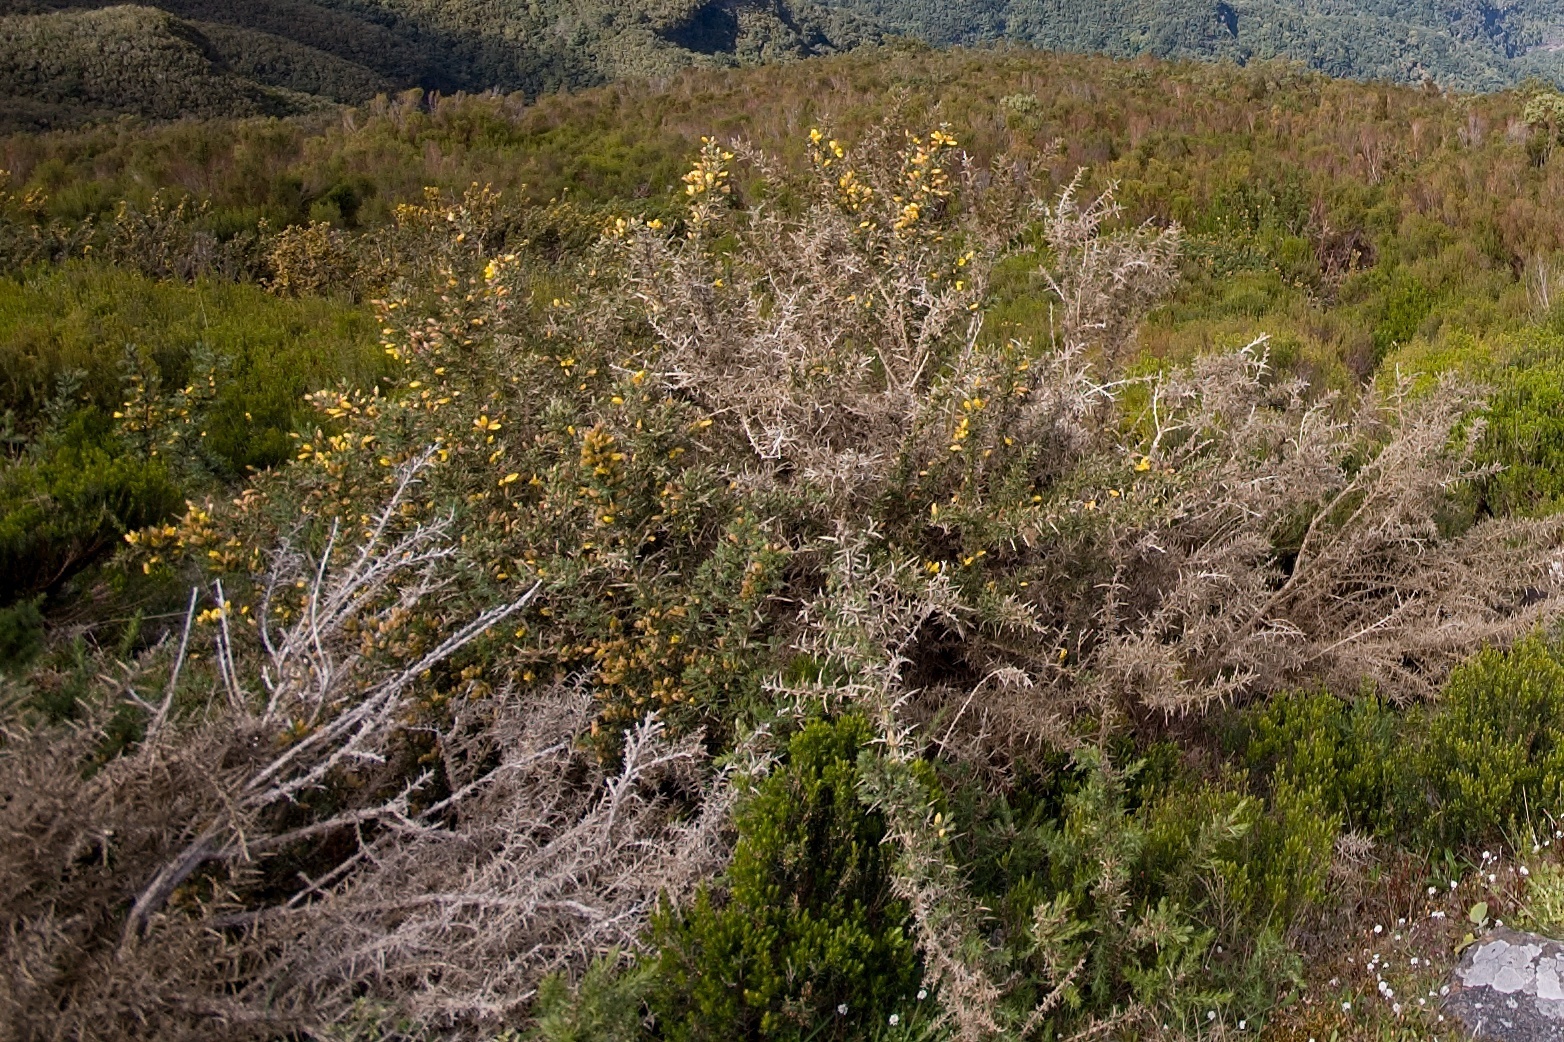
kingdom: Plantae
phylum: Tracheophyta
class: Magnoliopsida
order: Fabales
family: Fabaceae
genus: Ulex
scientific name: Ulex europaeus
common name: Common gorse
